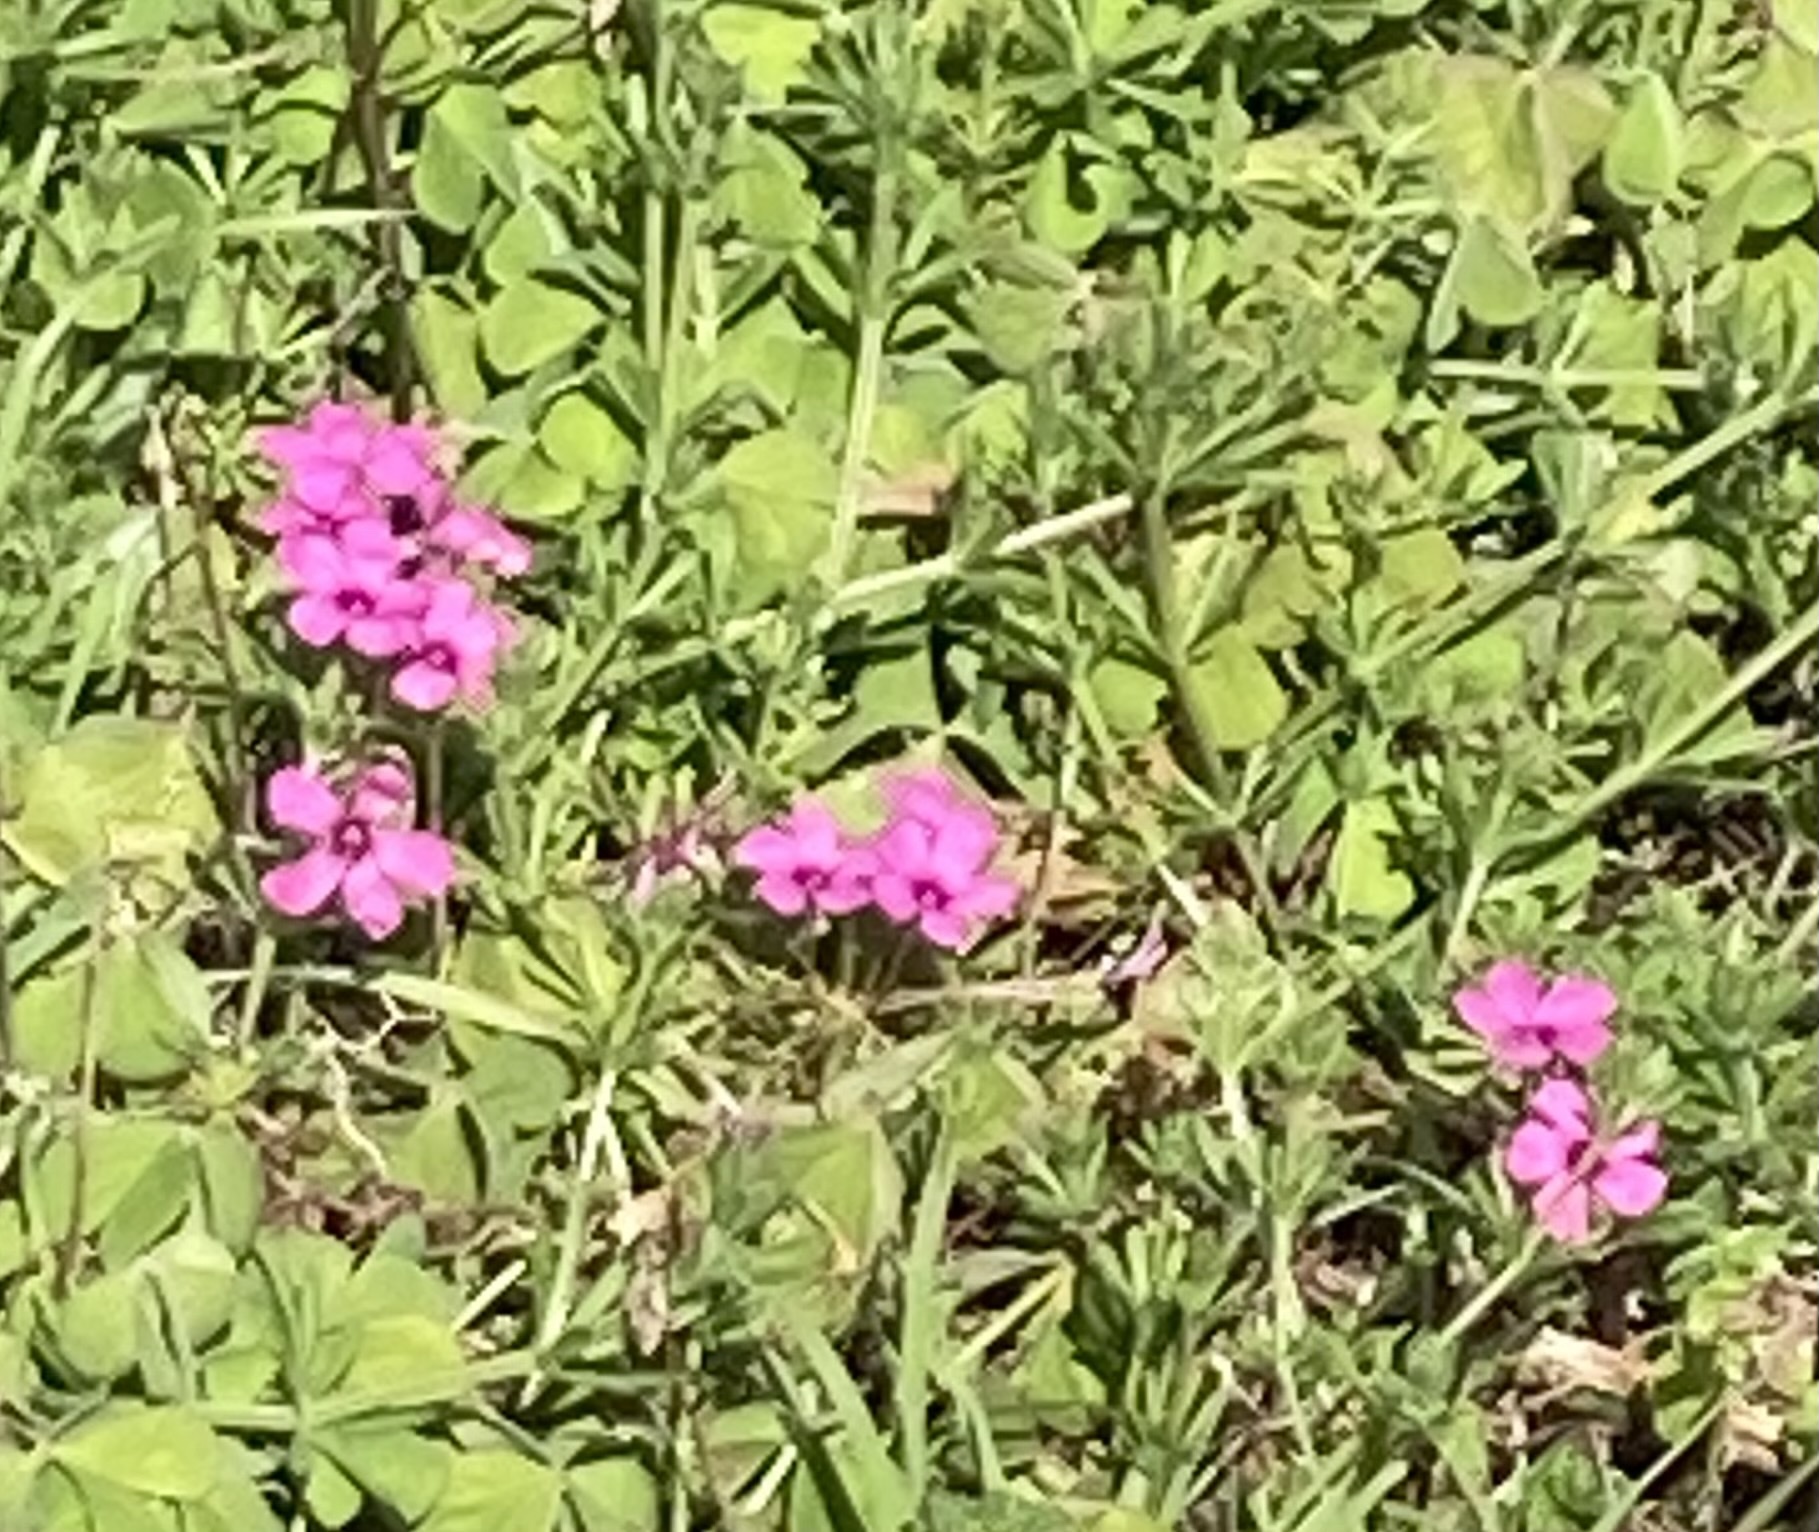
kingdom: Plantae
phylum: Tracheophyta
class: Magnoliopsida
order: Oxalidales
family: Oxalidaceae
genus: Oxalis
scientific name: Oxalis articulata
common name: Pink-sorrel
